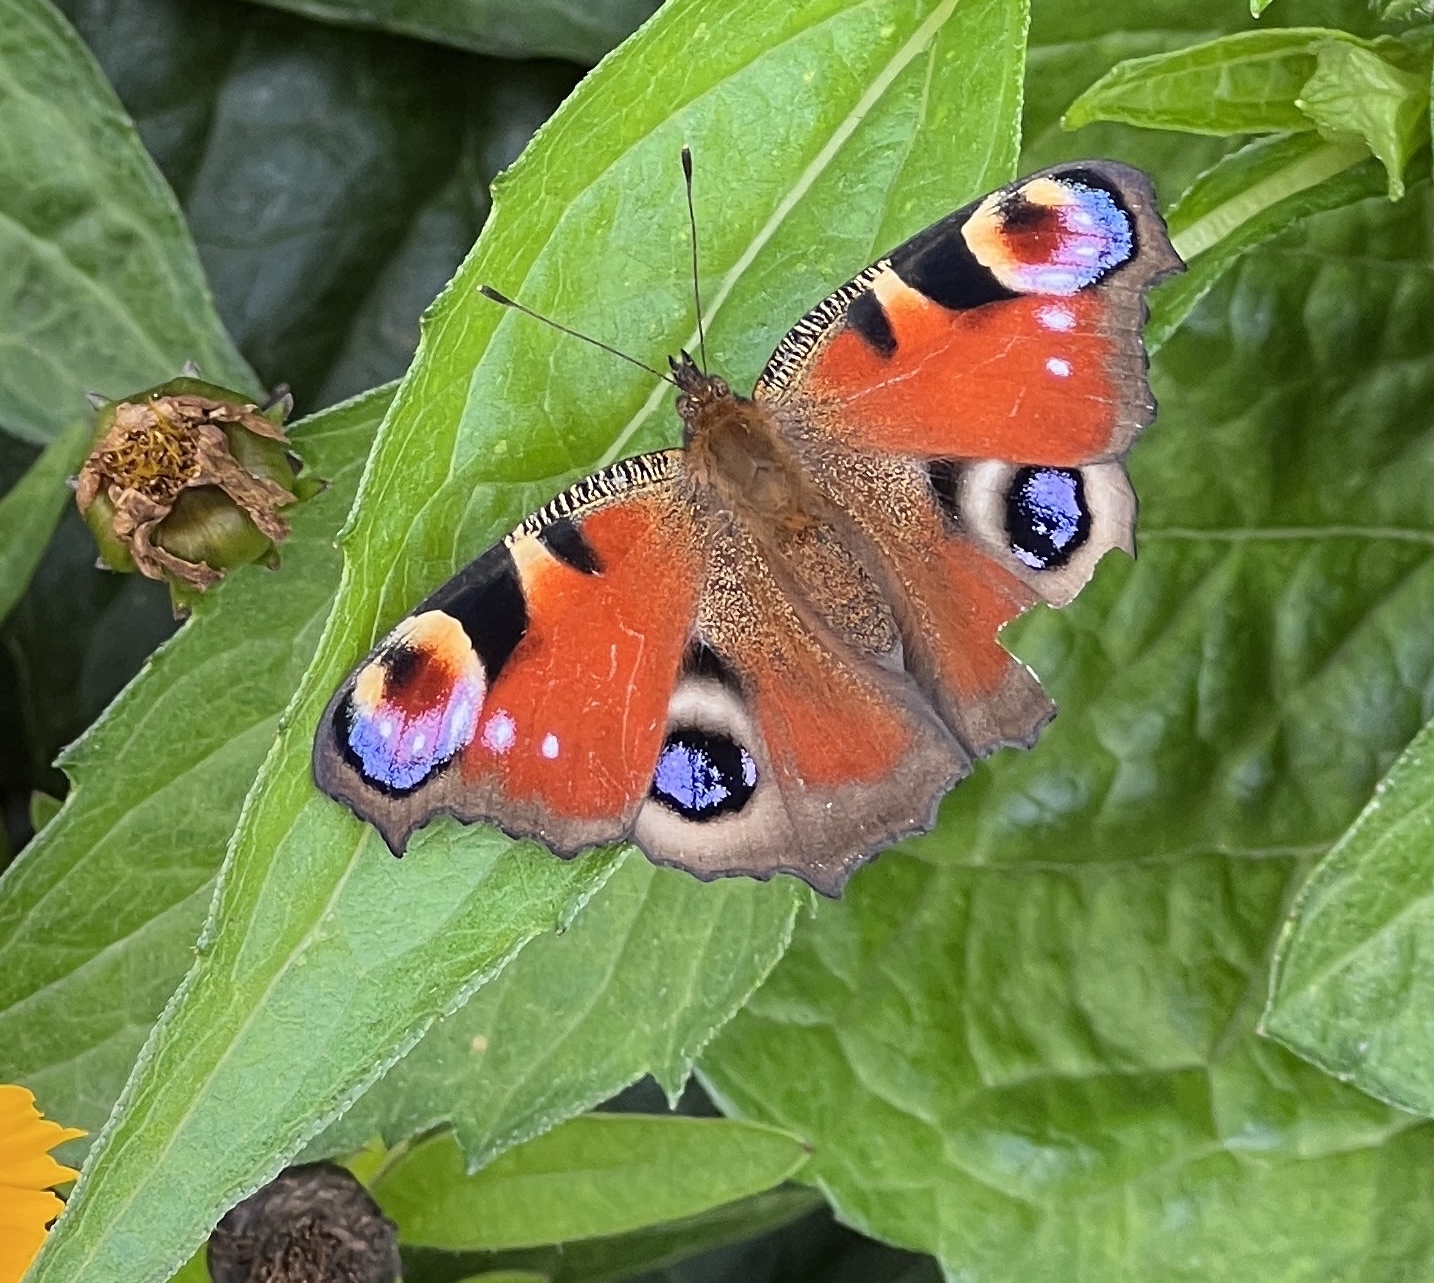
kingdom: Animalia
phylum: Arthropoda
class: Insecta
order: Lepidoptera
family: Nymphalidae
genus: Aglais
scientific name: Aglais io
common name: Peacock
